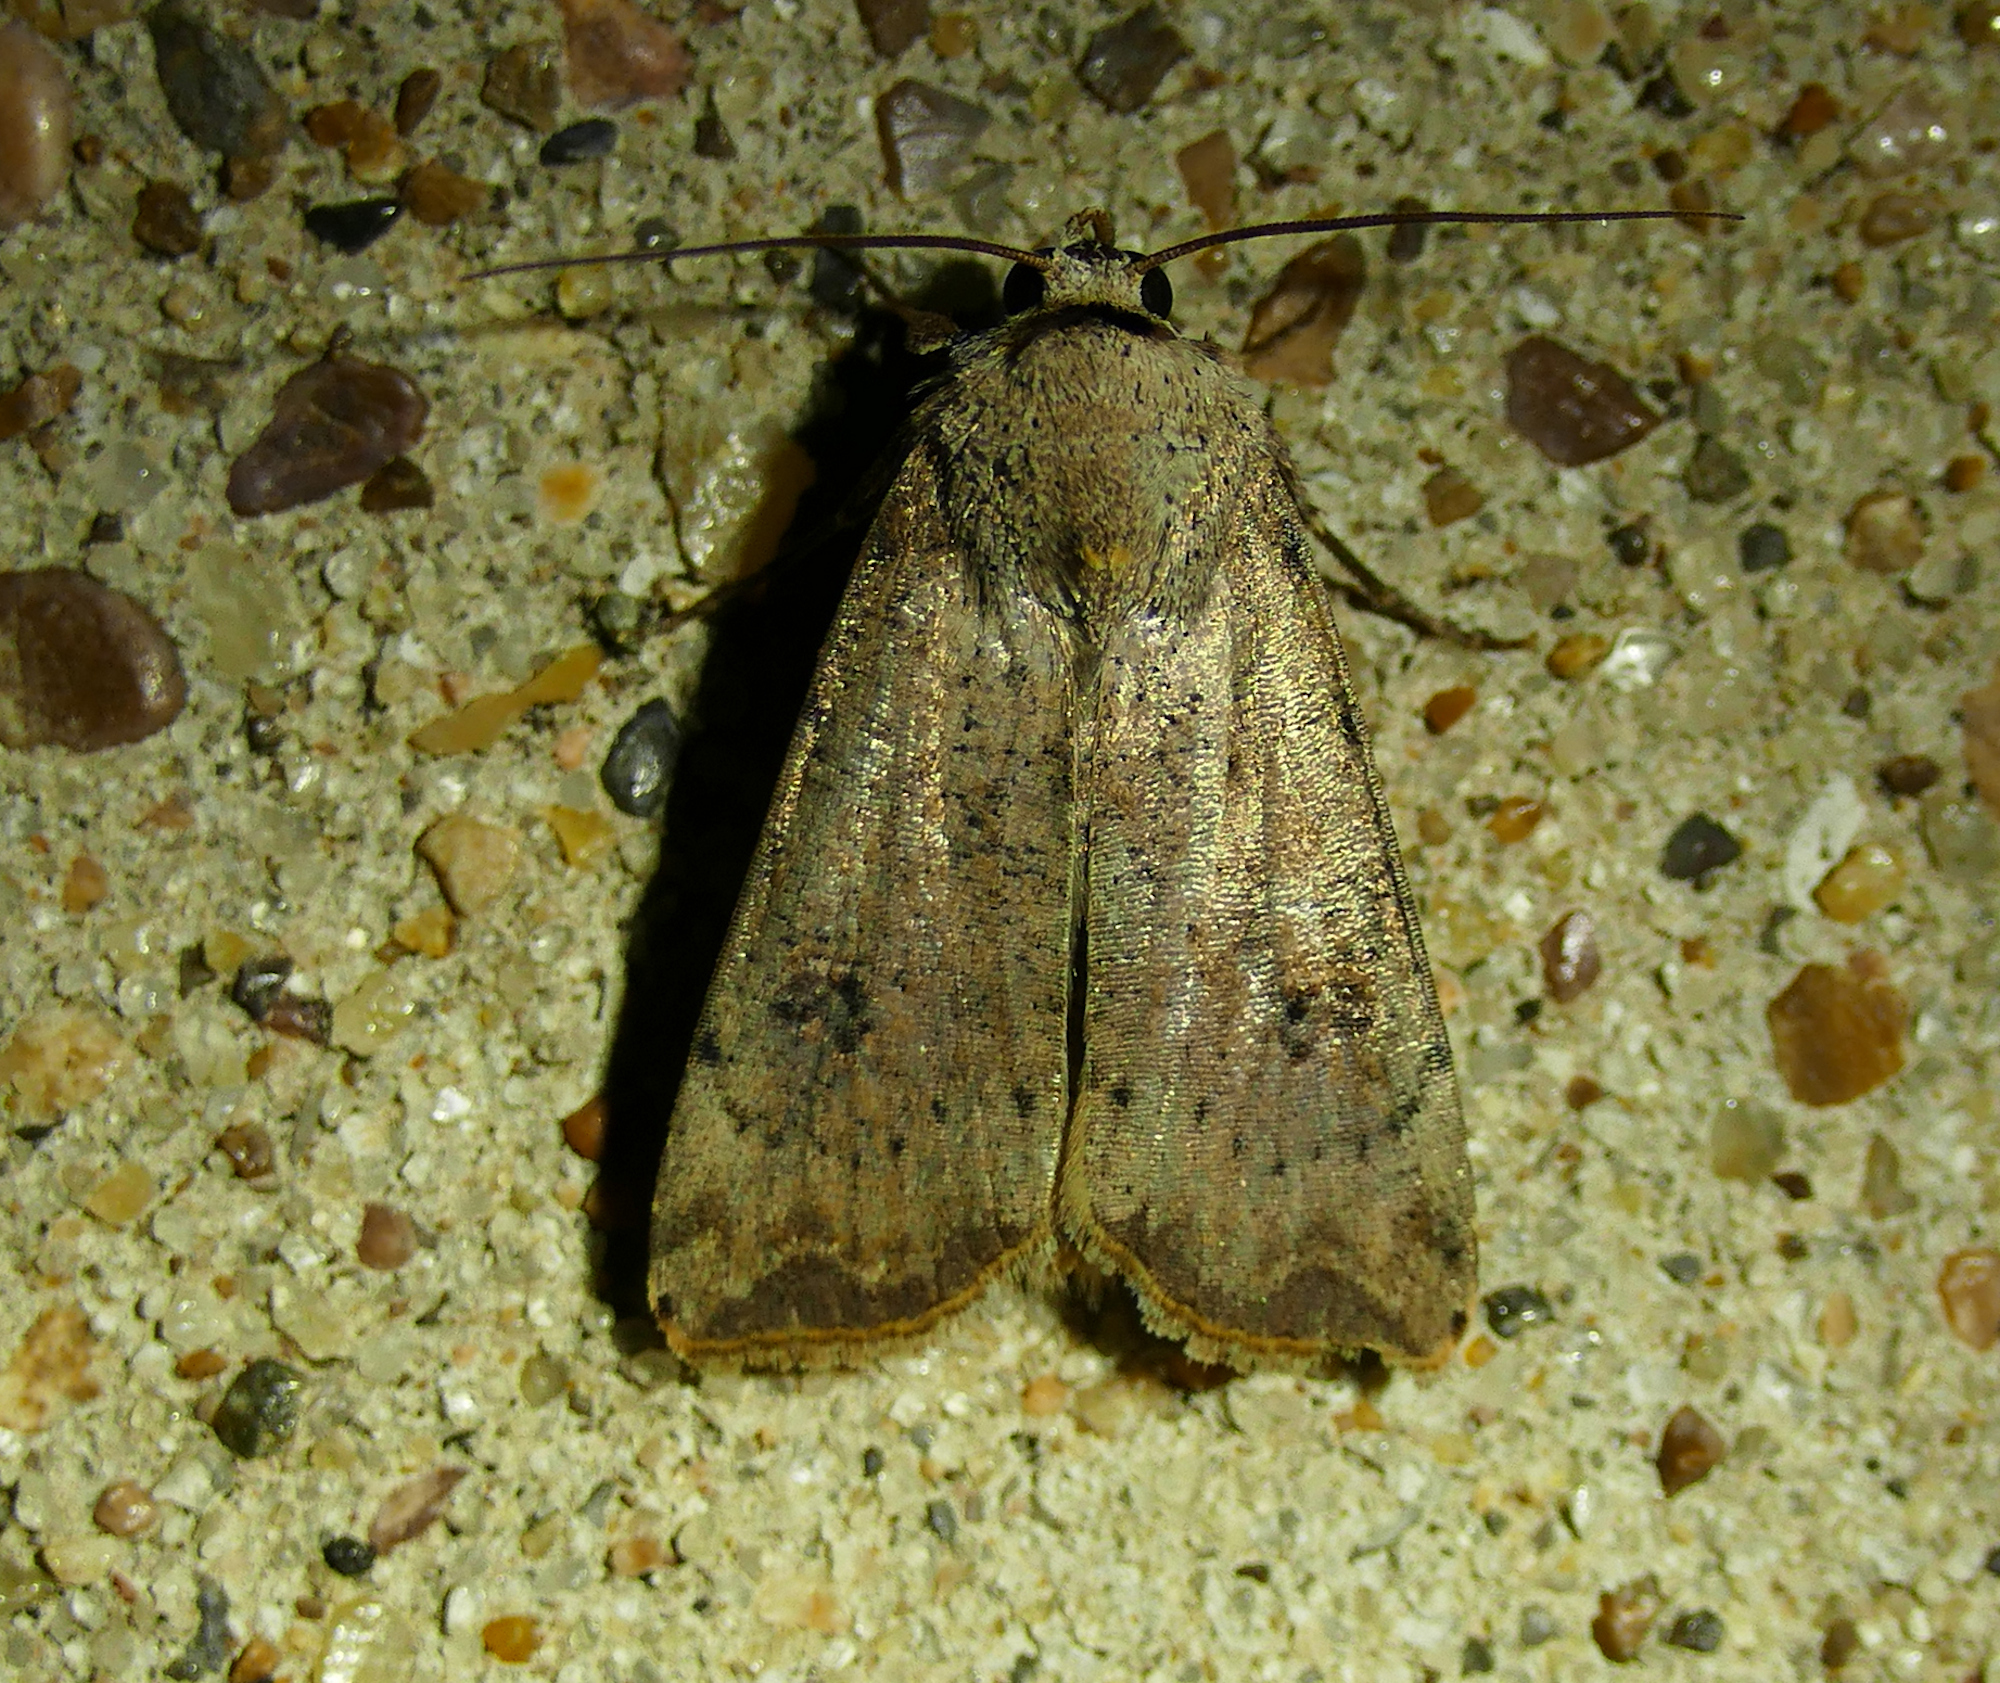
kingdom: Animalia
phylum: Arthropoda
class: Insecta
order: Lepidoptera
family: Noctuidae
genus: Anicla
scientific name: Anicla infecta
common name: Green cutworm
